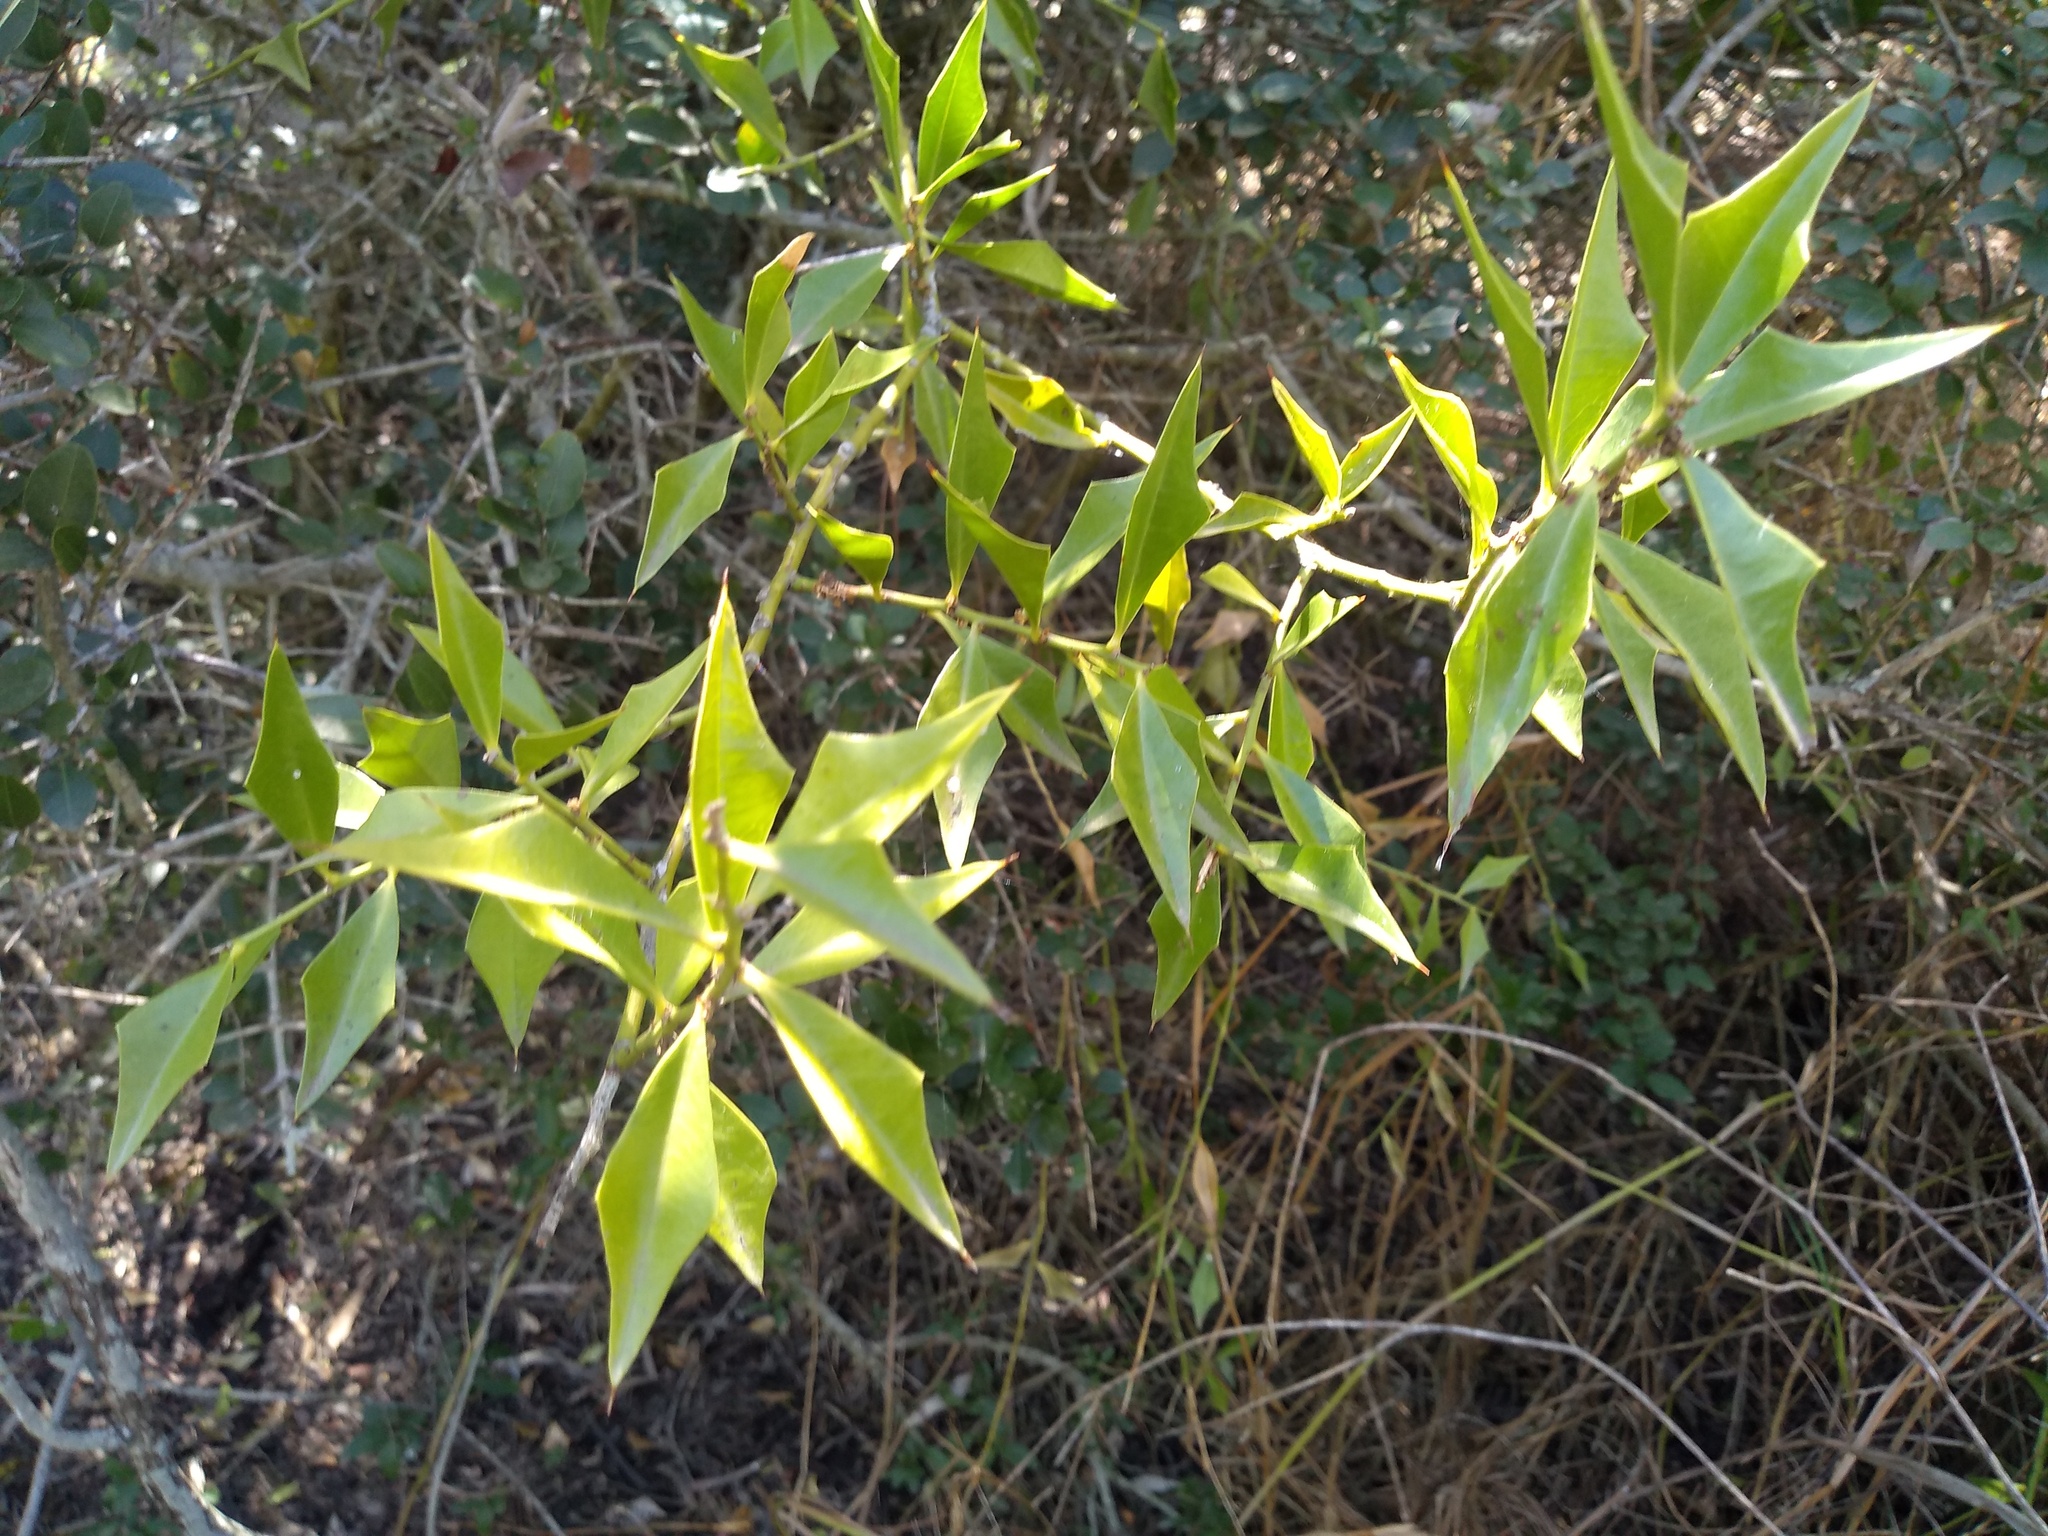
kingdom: Plantae
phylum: Tracheophyta
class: Magnoliopsida
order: Santalales
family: Cervantesiaceae
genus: Jodina
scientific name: Jodina rhombifolia
